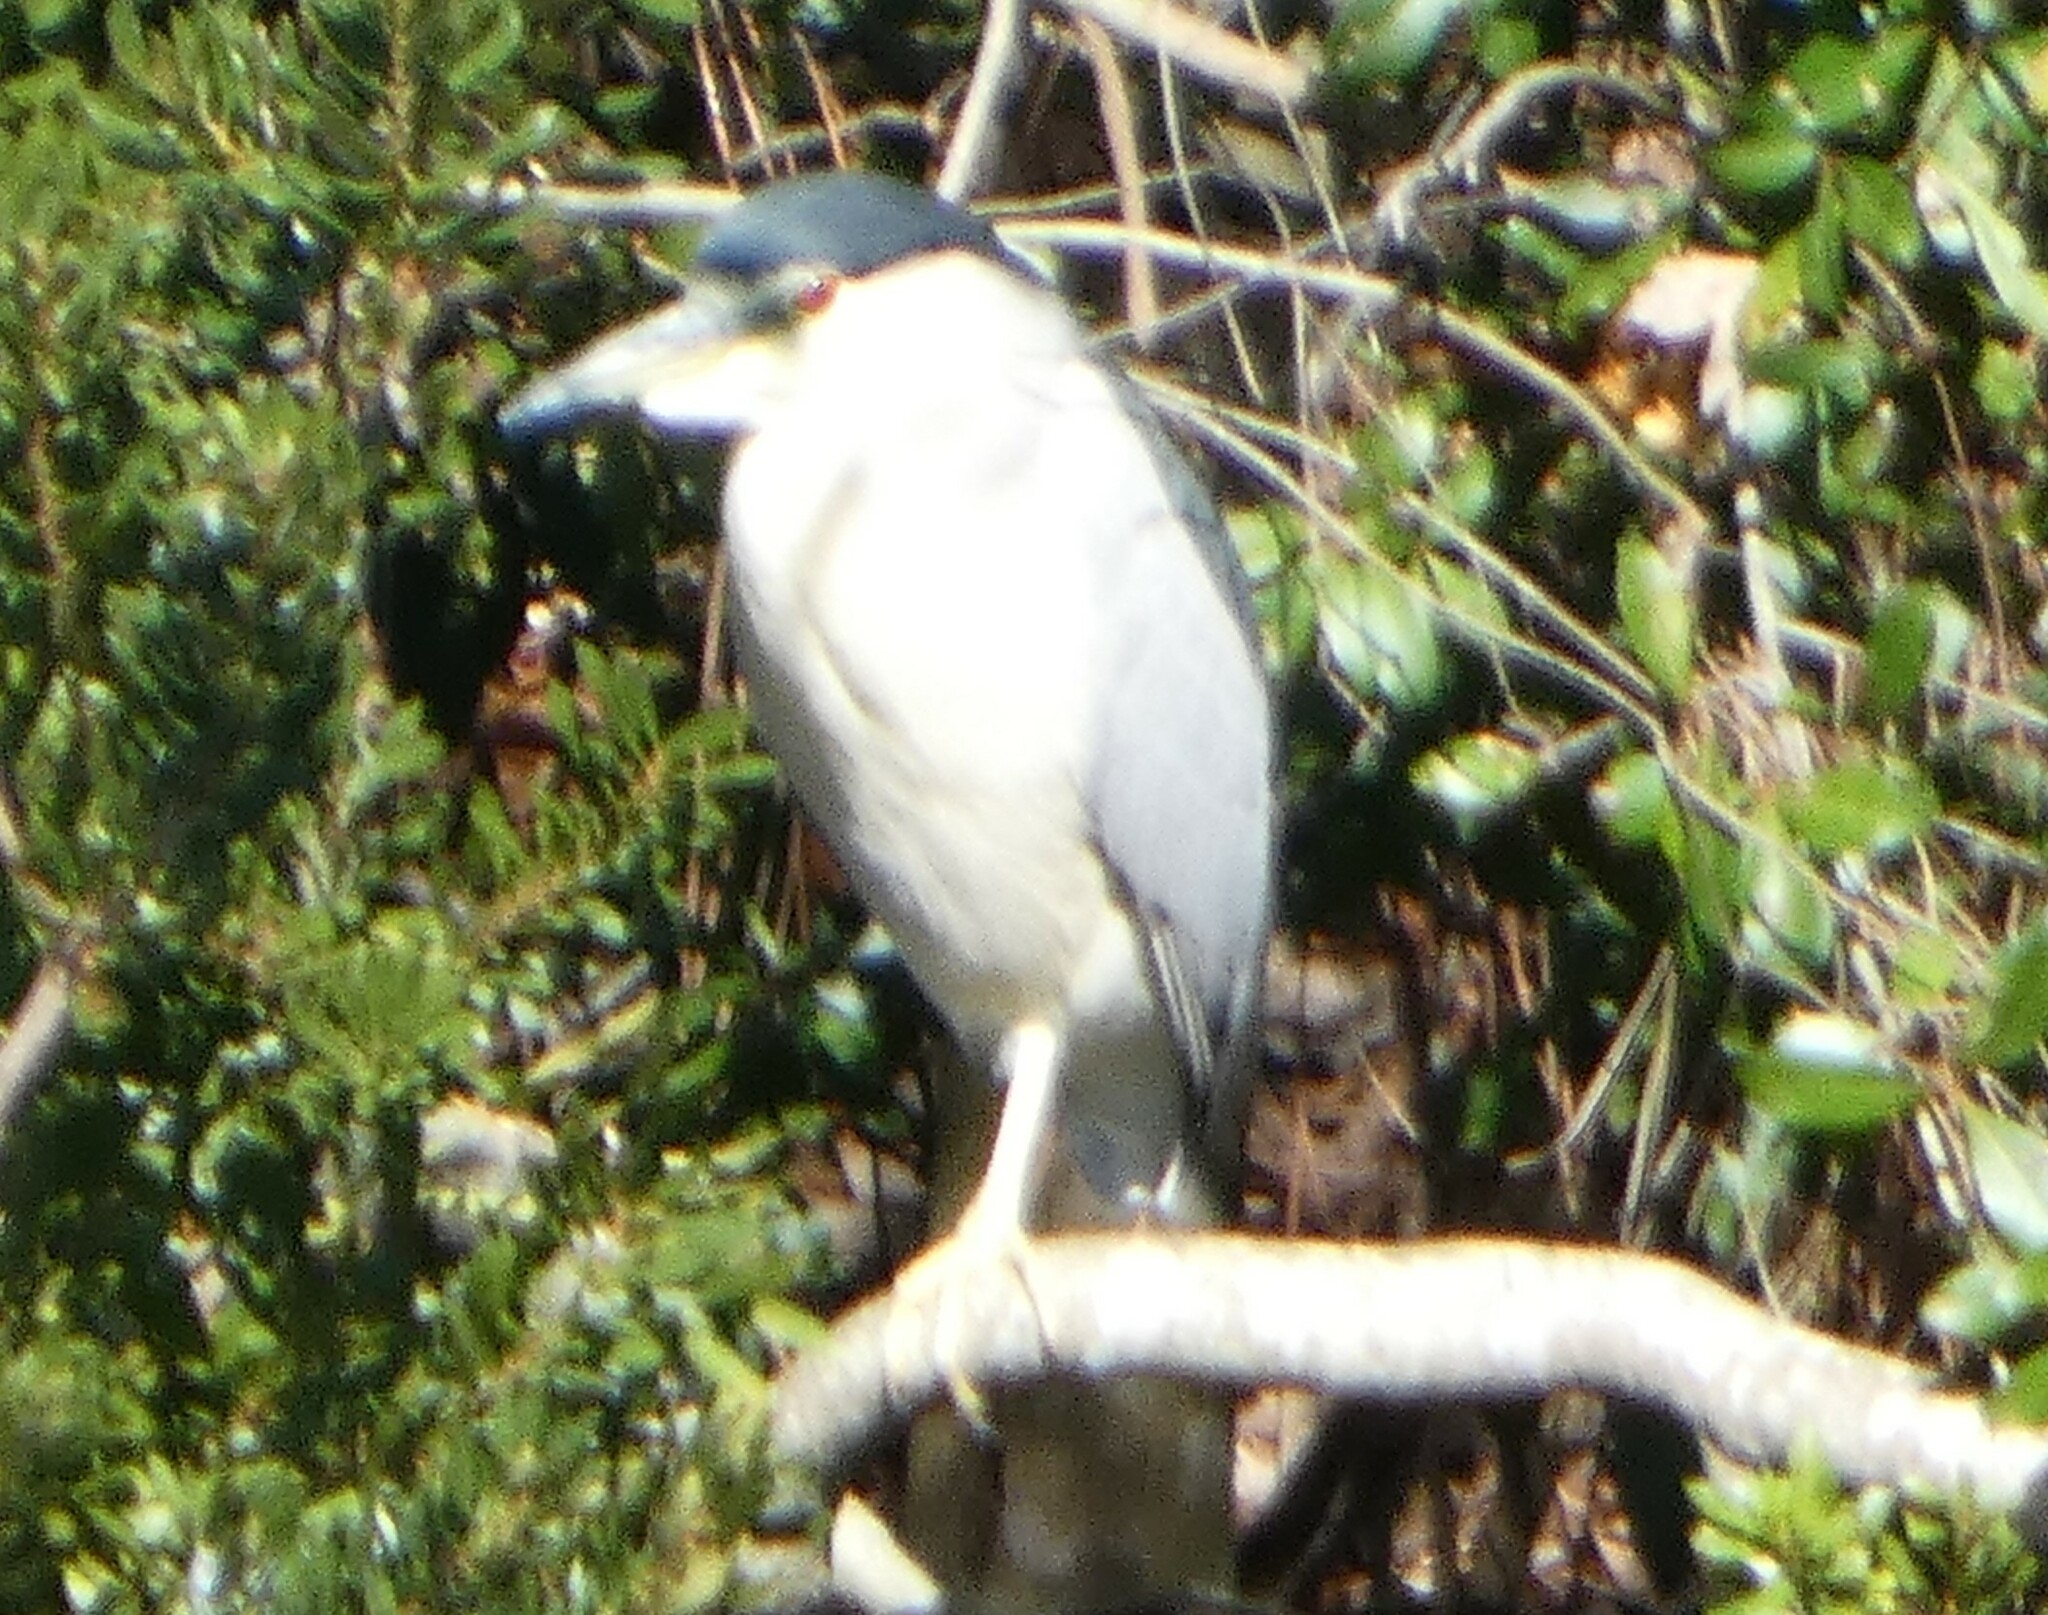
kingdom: Animalia
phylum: Chordata
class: Aves
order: Pelecaniformes
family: Ardeidae
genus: Nycticorax
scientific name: Nycticorax nycticorax
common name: Black-crowned night heron
